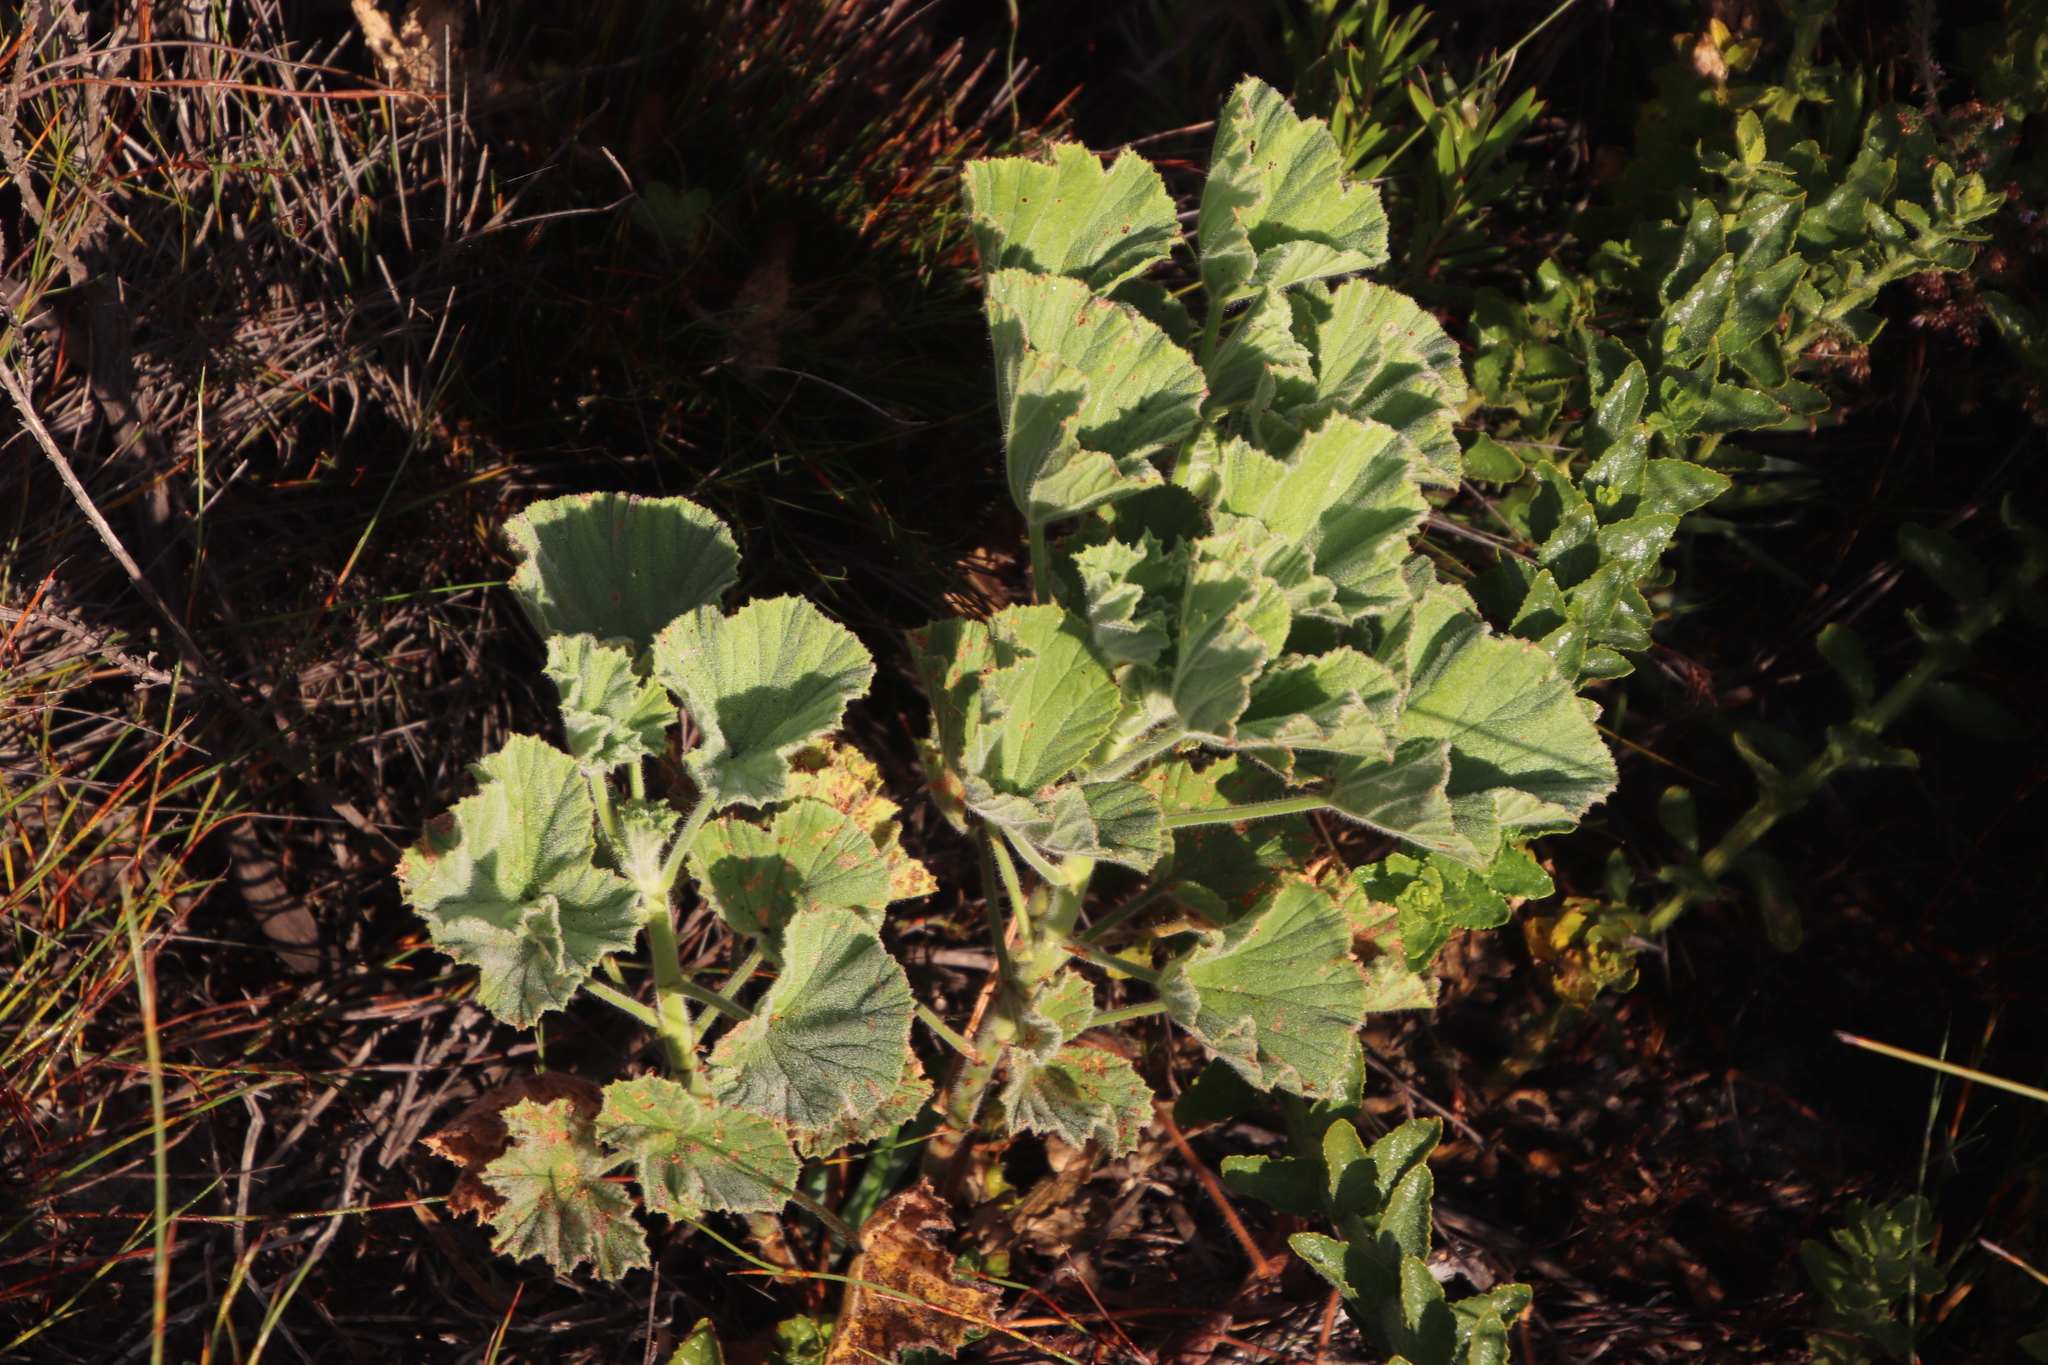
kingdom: Plantae
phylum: Tracheophyta
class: Magnoliopsida
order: Geraniales
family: Geraniaceae
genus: Pelargonium
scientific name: Pelargonium cucullatum
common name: Tree pelargonium
